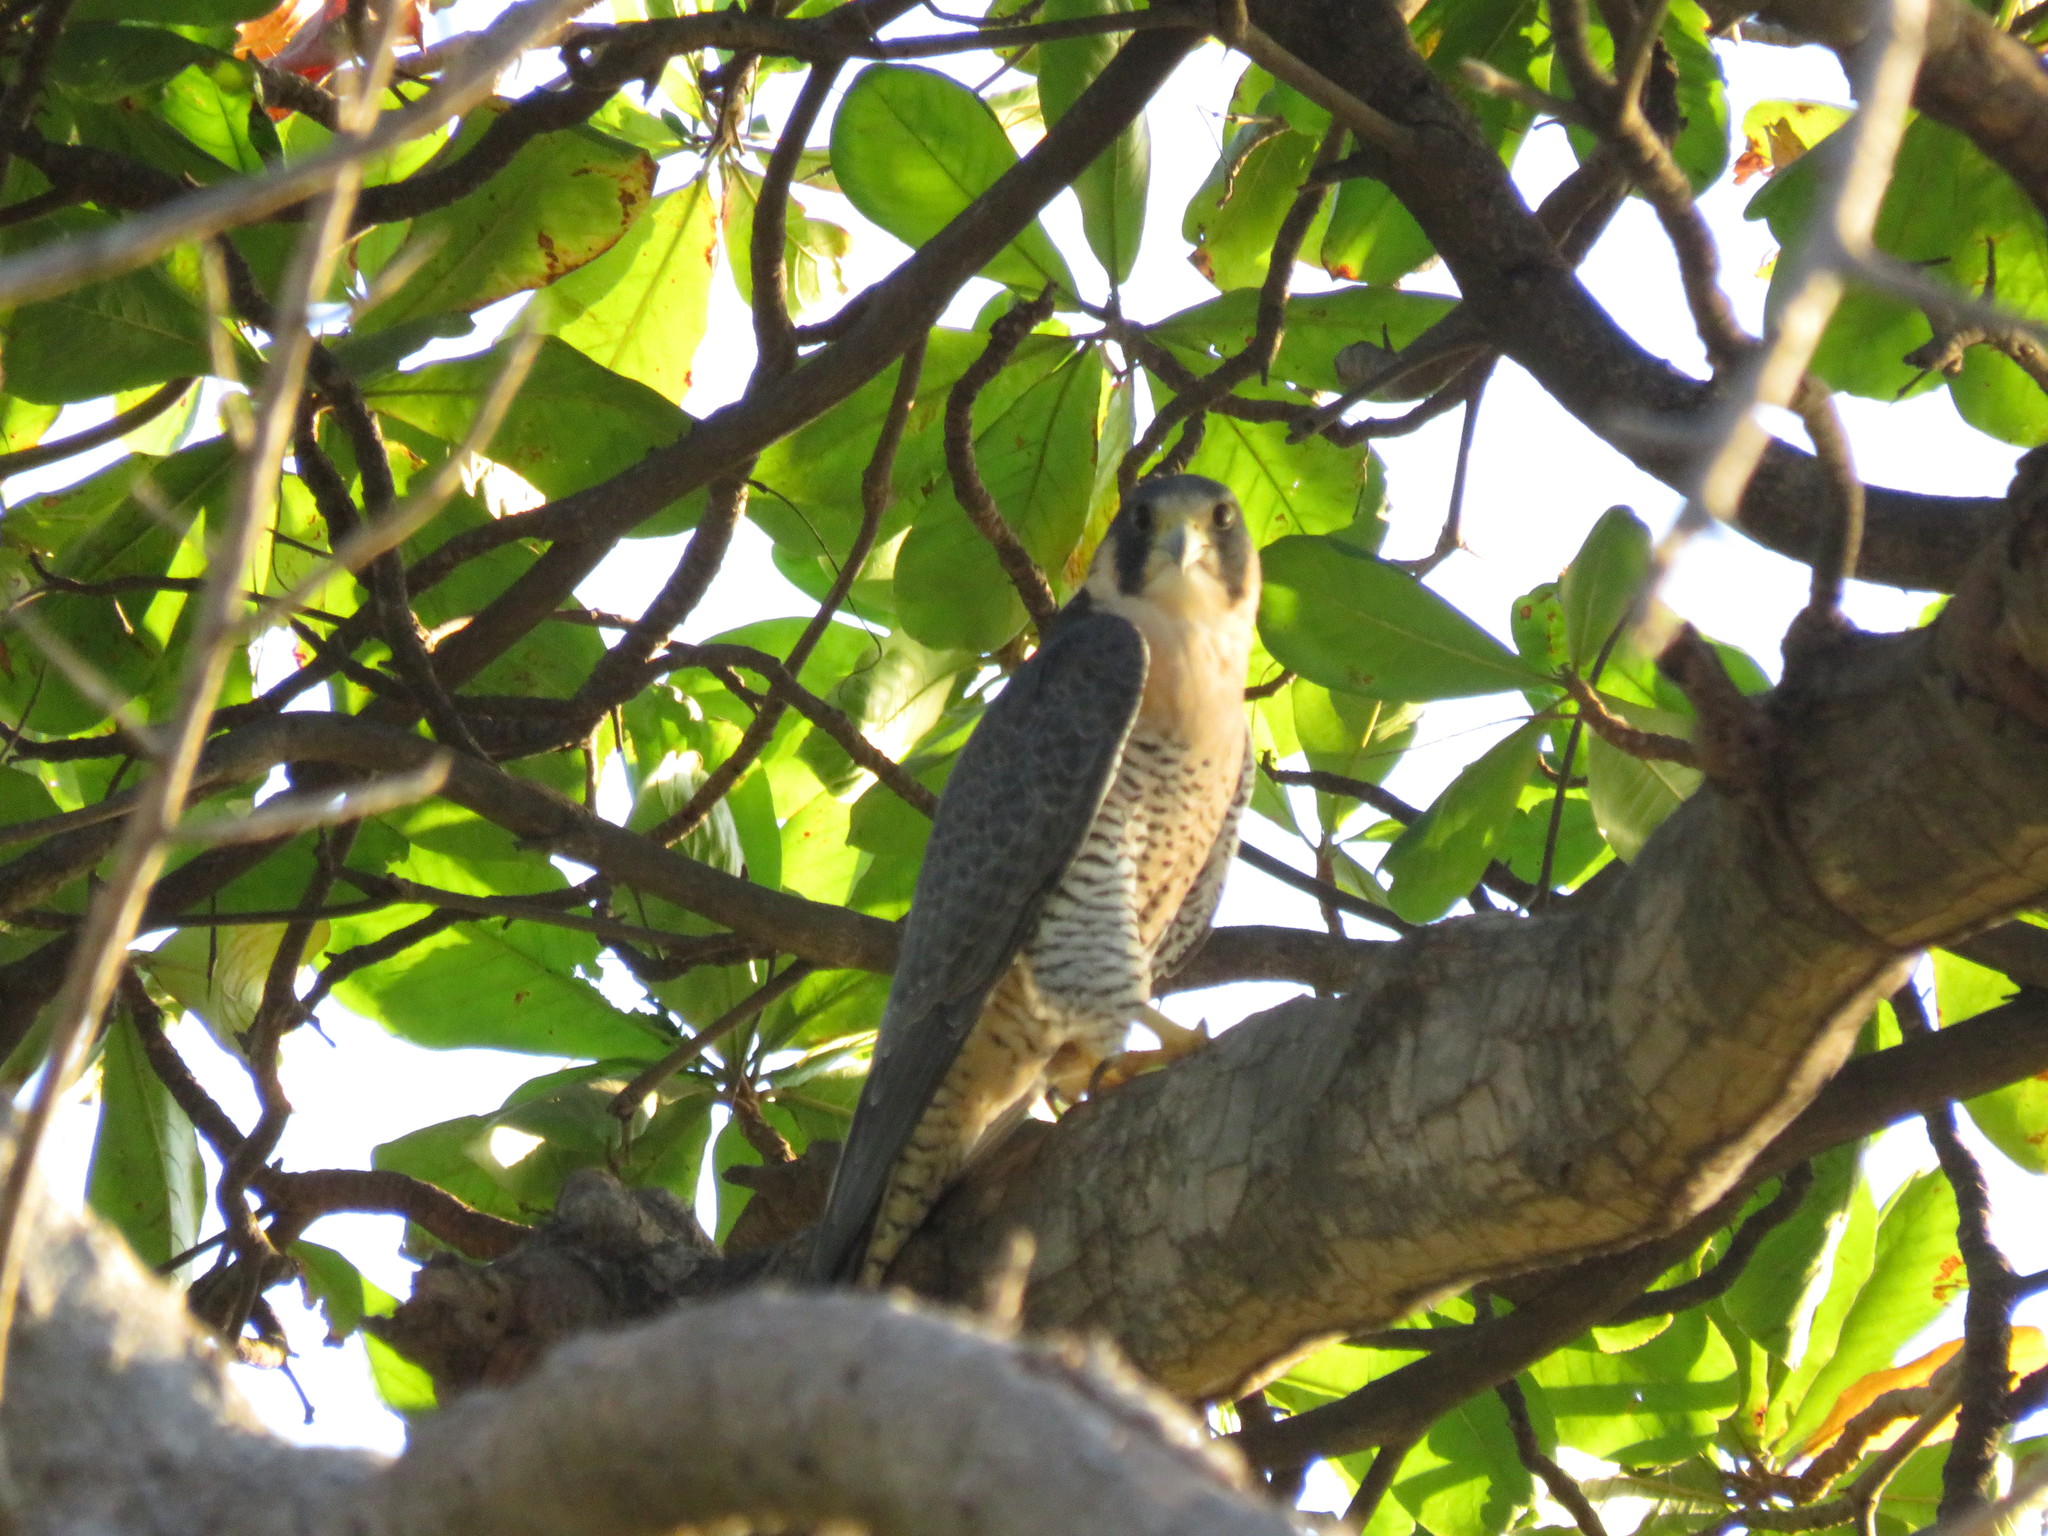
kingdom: Animalia
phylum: Chordata
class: Aves
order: Falconiformes
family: Falconidae
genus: Falco
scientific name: Falco peregrinus
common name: Peregrine falcon
